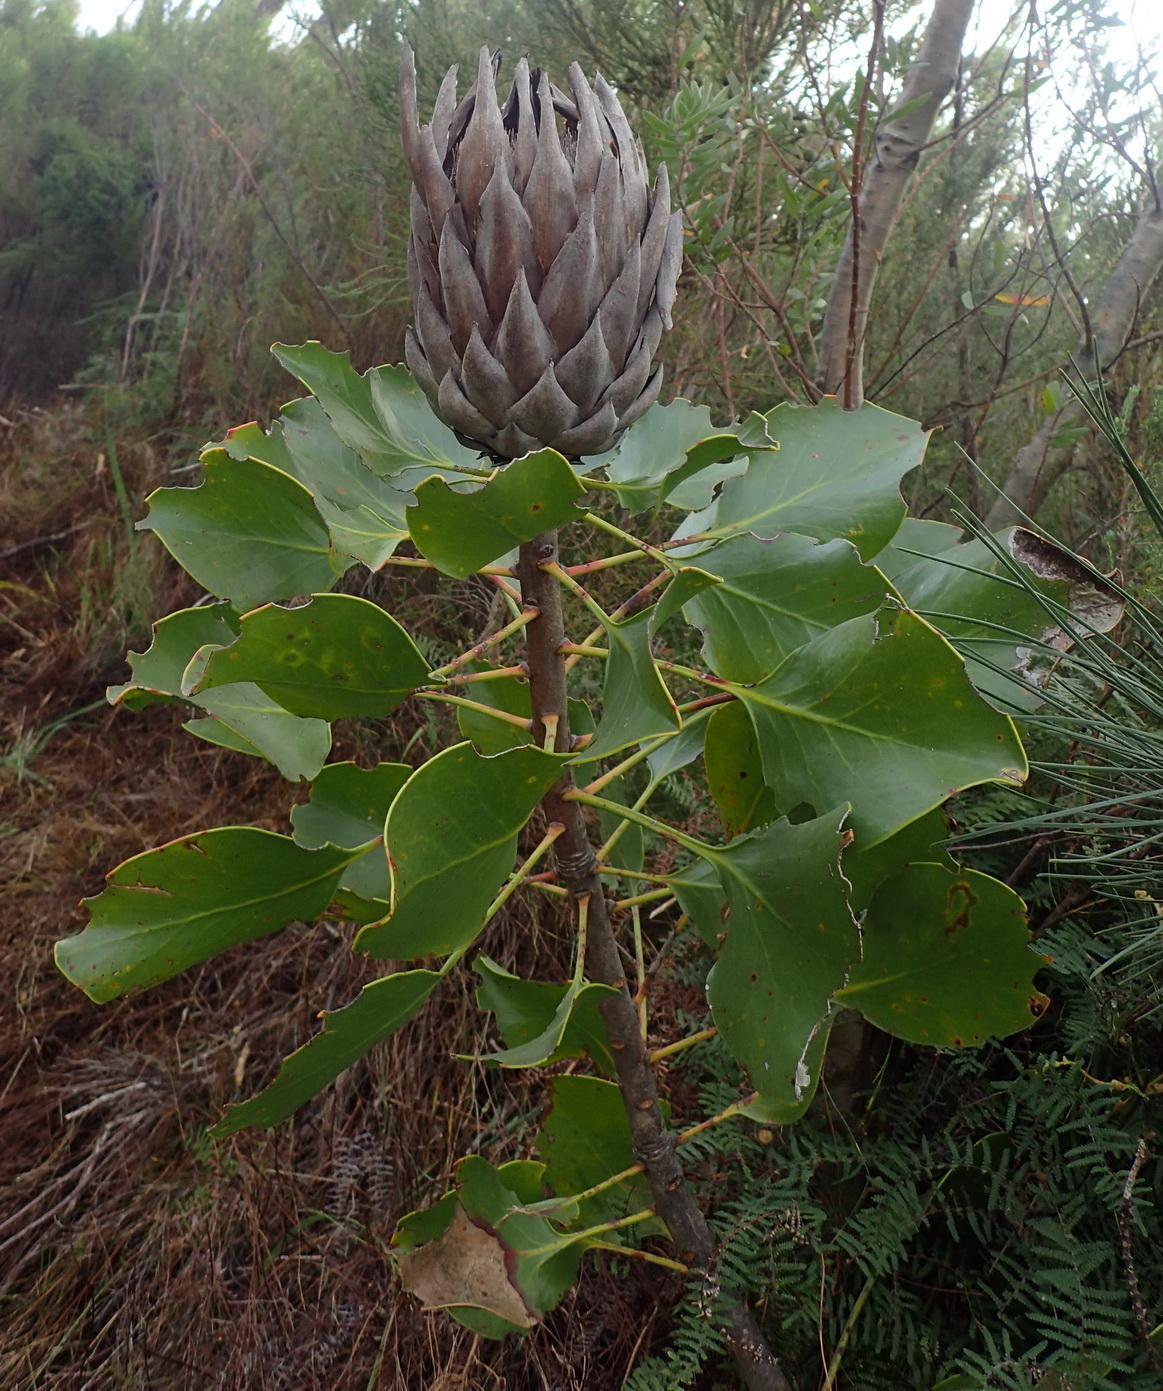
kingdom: Plantae
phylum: Tracheophyta
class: Magnoliopsida
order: Proteales
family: Proteaceae
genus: Protea
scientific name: Protea cynaroides
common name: King protea
